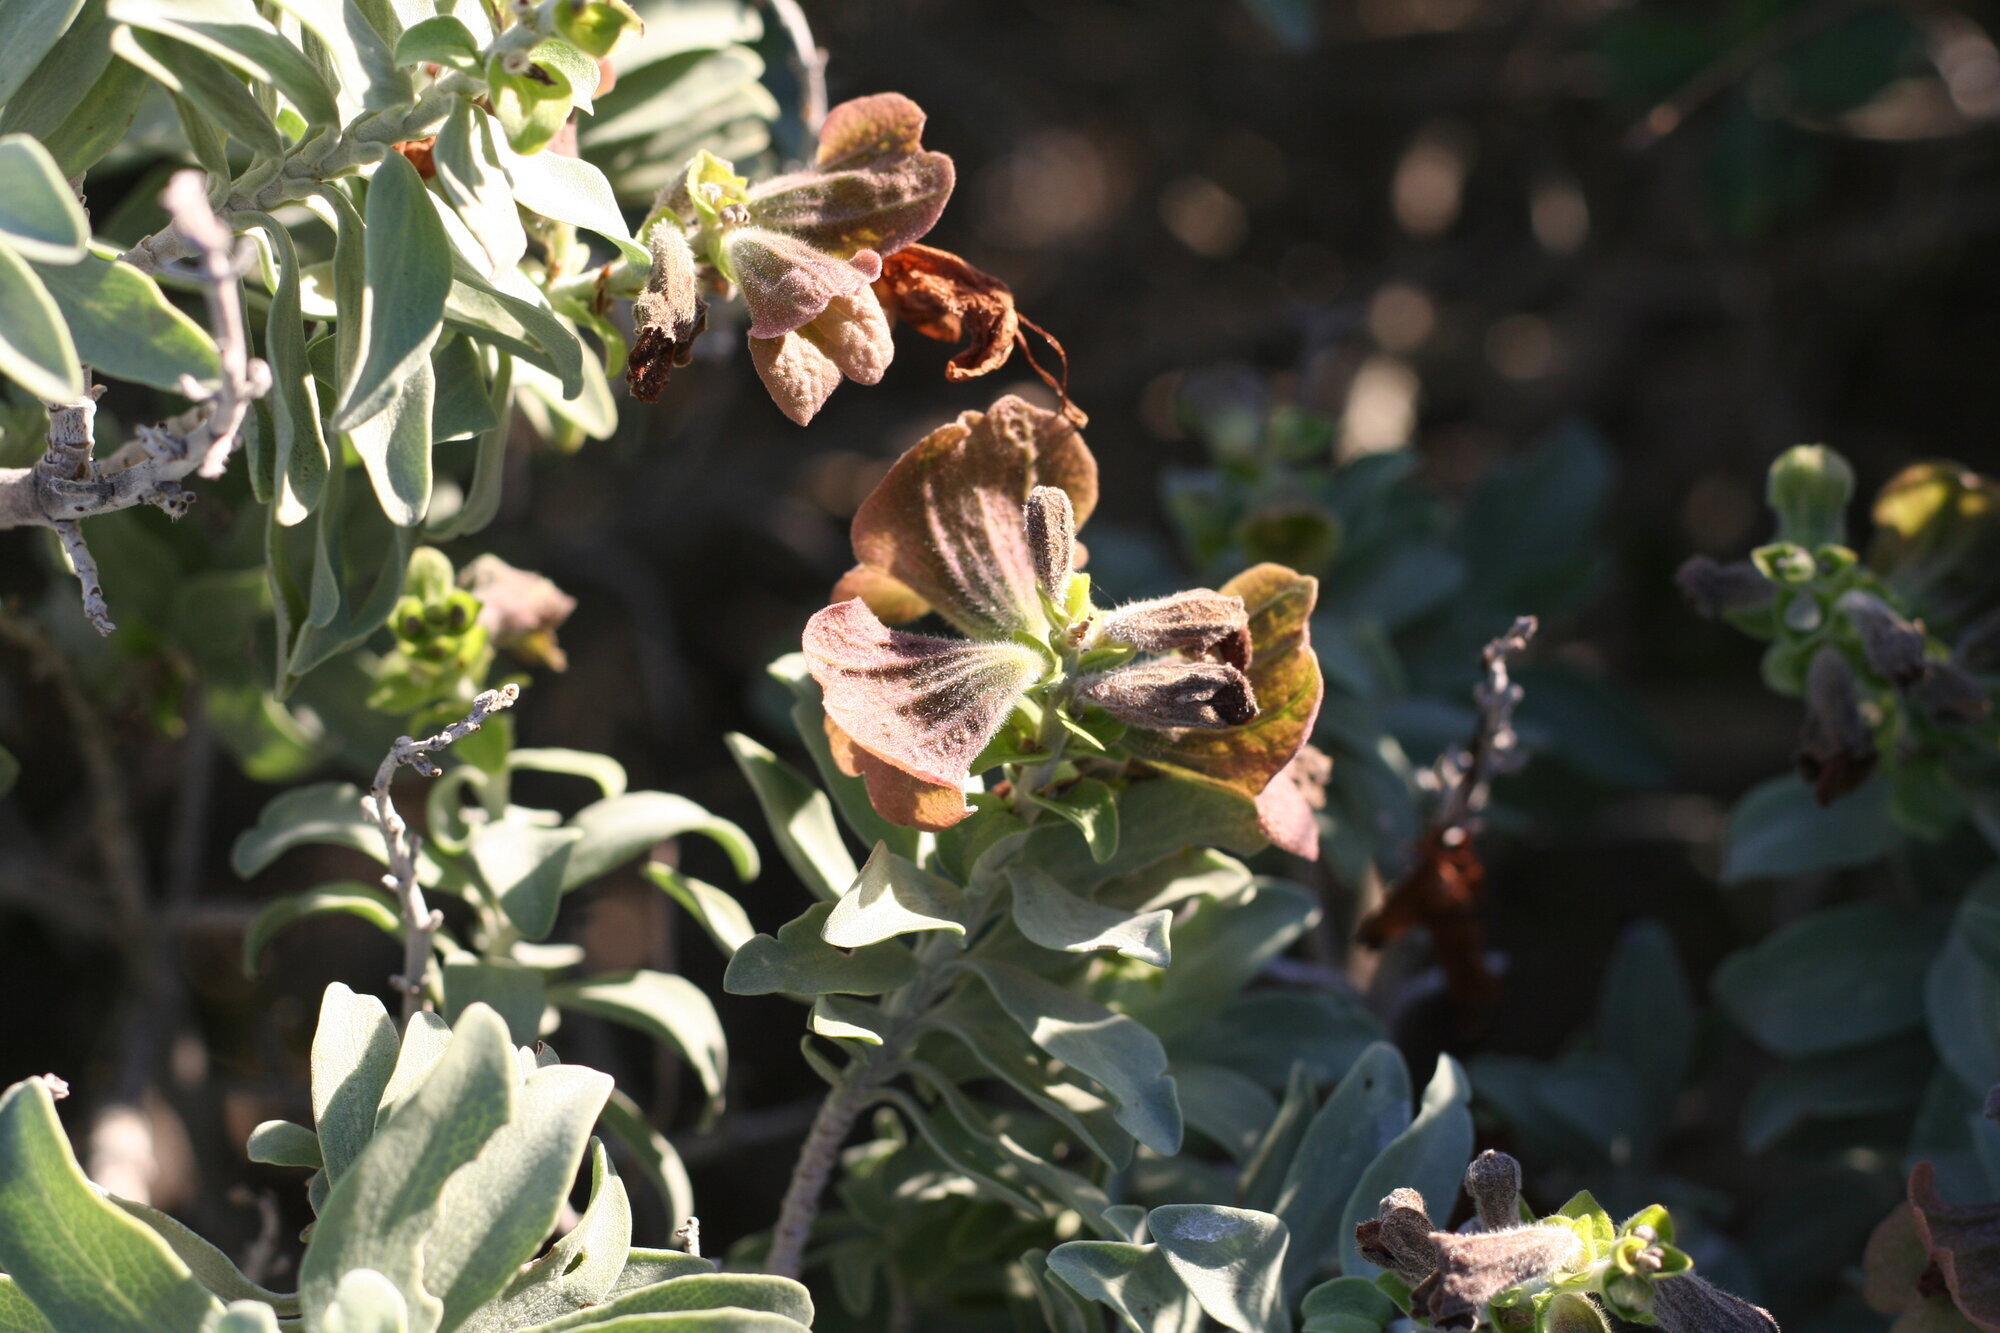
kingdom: Plantae
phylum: Tracheophyta
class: Magnoliopsida
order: Lamiales
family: Lamiaceae
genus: Salvia
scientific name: Salvia aurea
